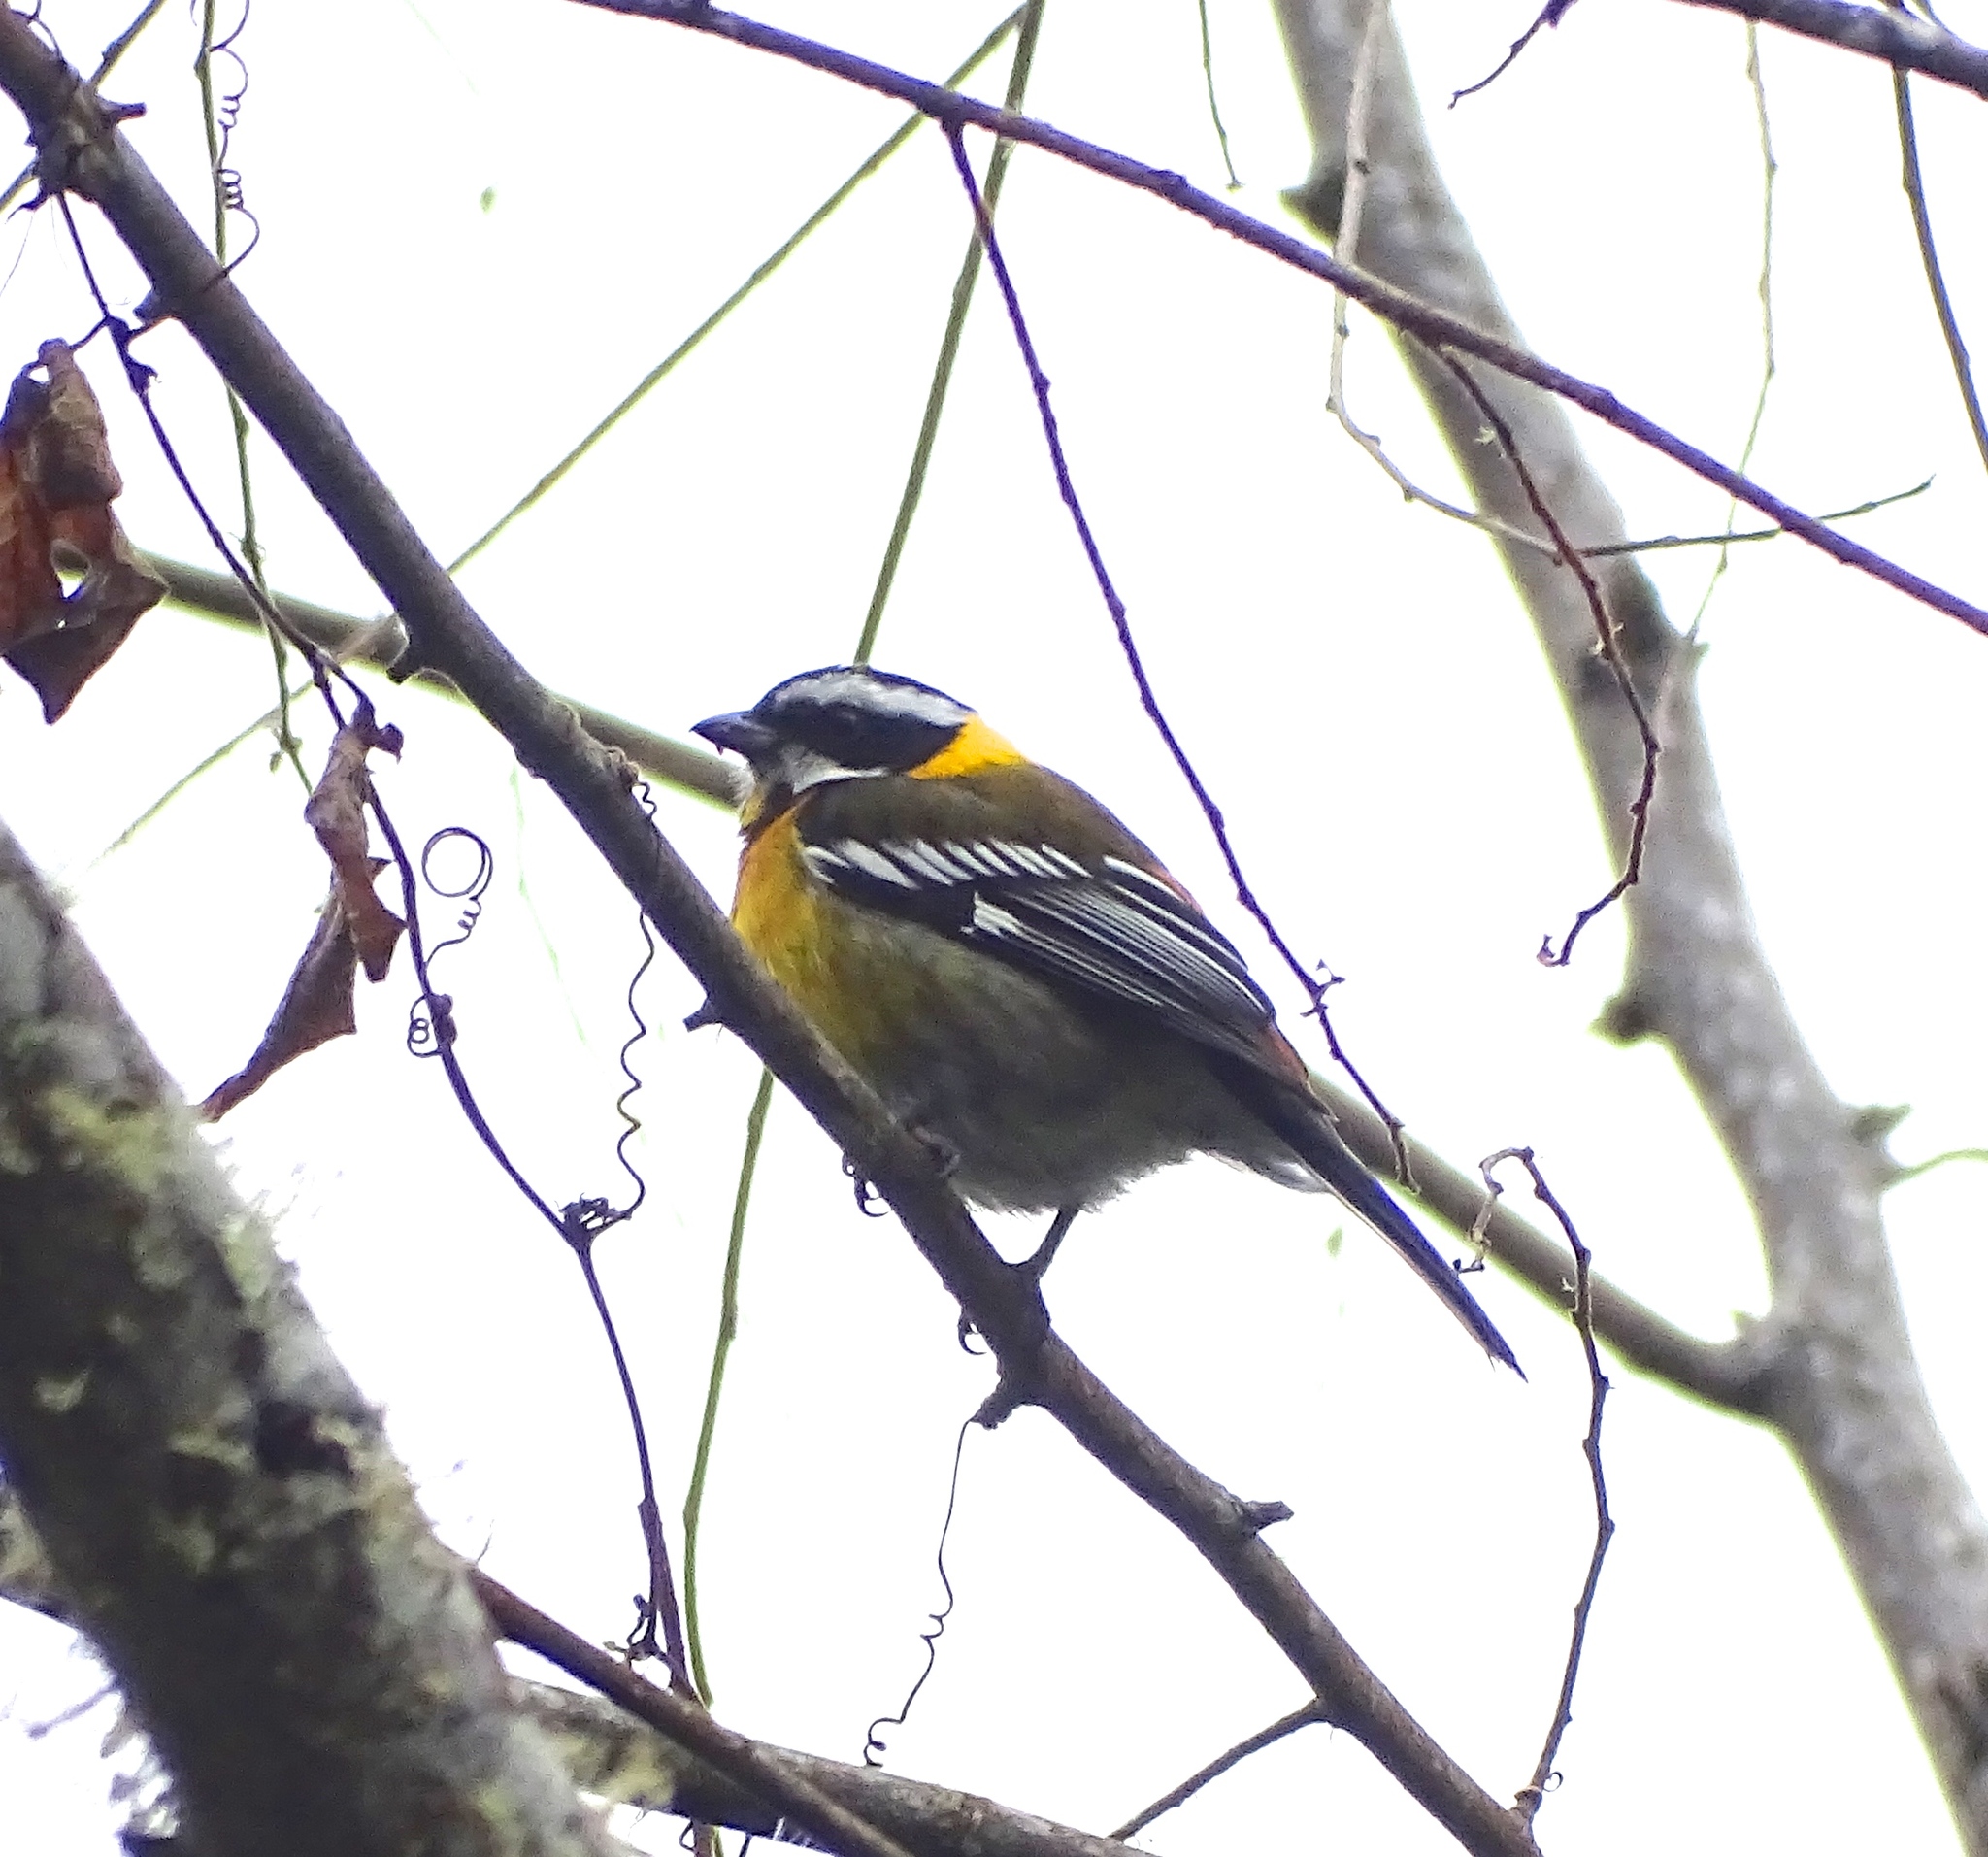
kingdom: Animalia
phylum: Chordata
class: Aves
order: Passeriformes
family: Spindalidae
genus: Spindalis
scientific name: Spindalis dominicensis
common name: Hispaniolan spindalis
